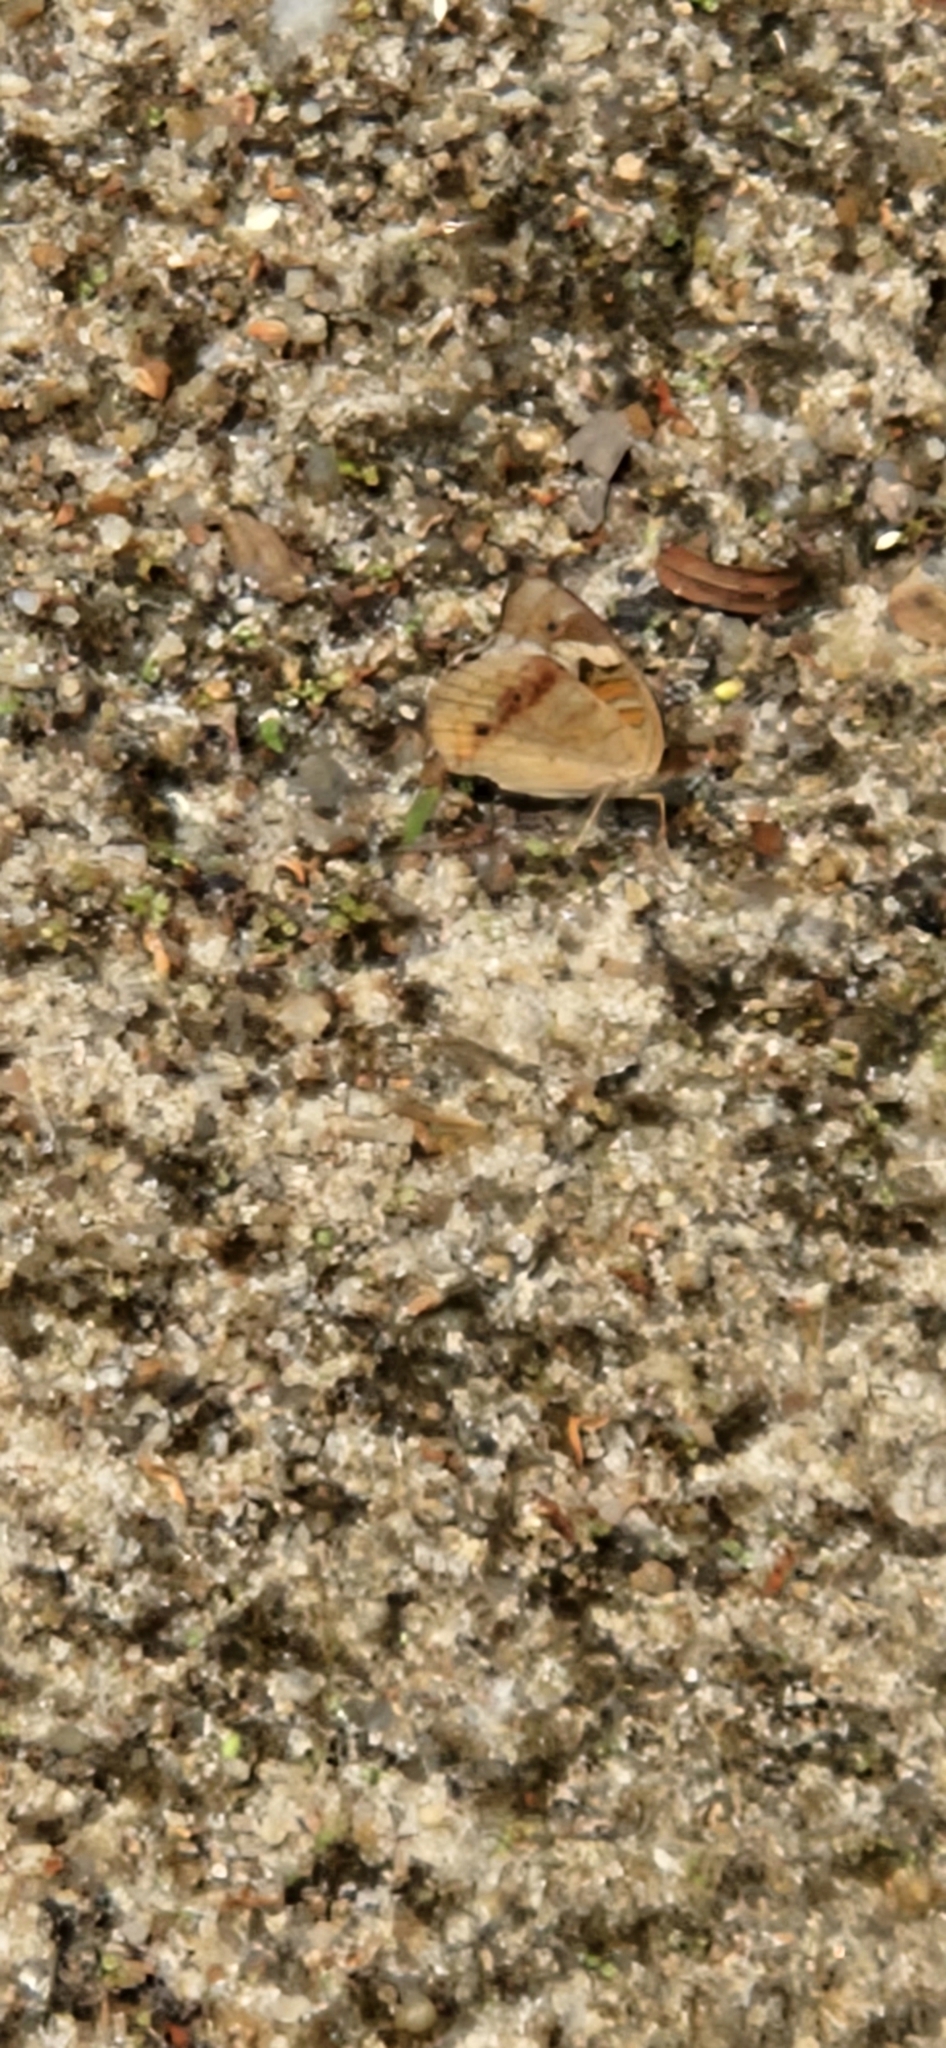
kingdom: Animalia
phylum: Arthropoda
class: Insecta
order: Lepidoptera
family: Nymphalidae
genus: Junonia
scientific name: Junonia coenia
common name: Common buckeye
